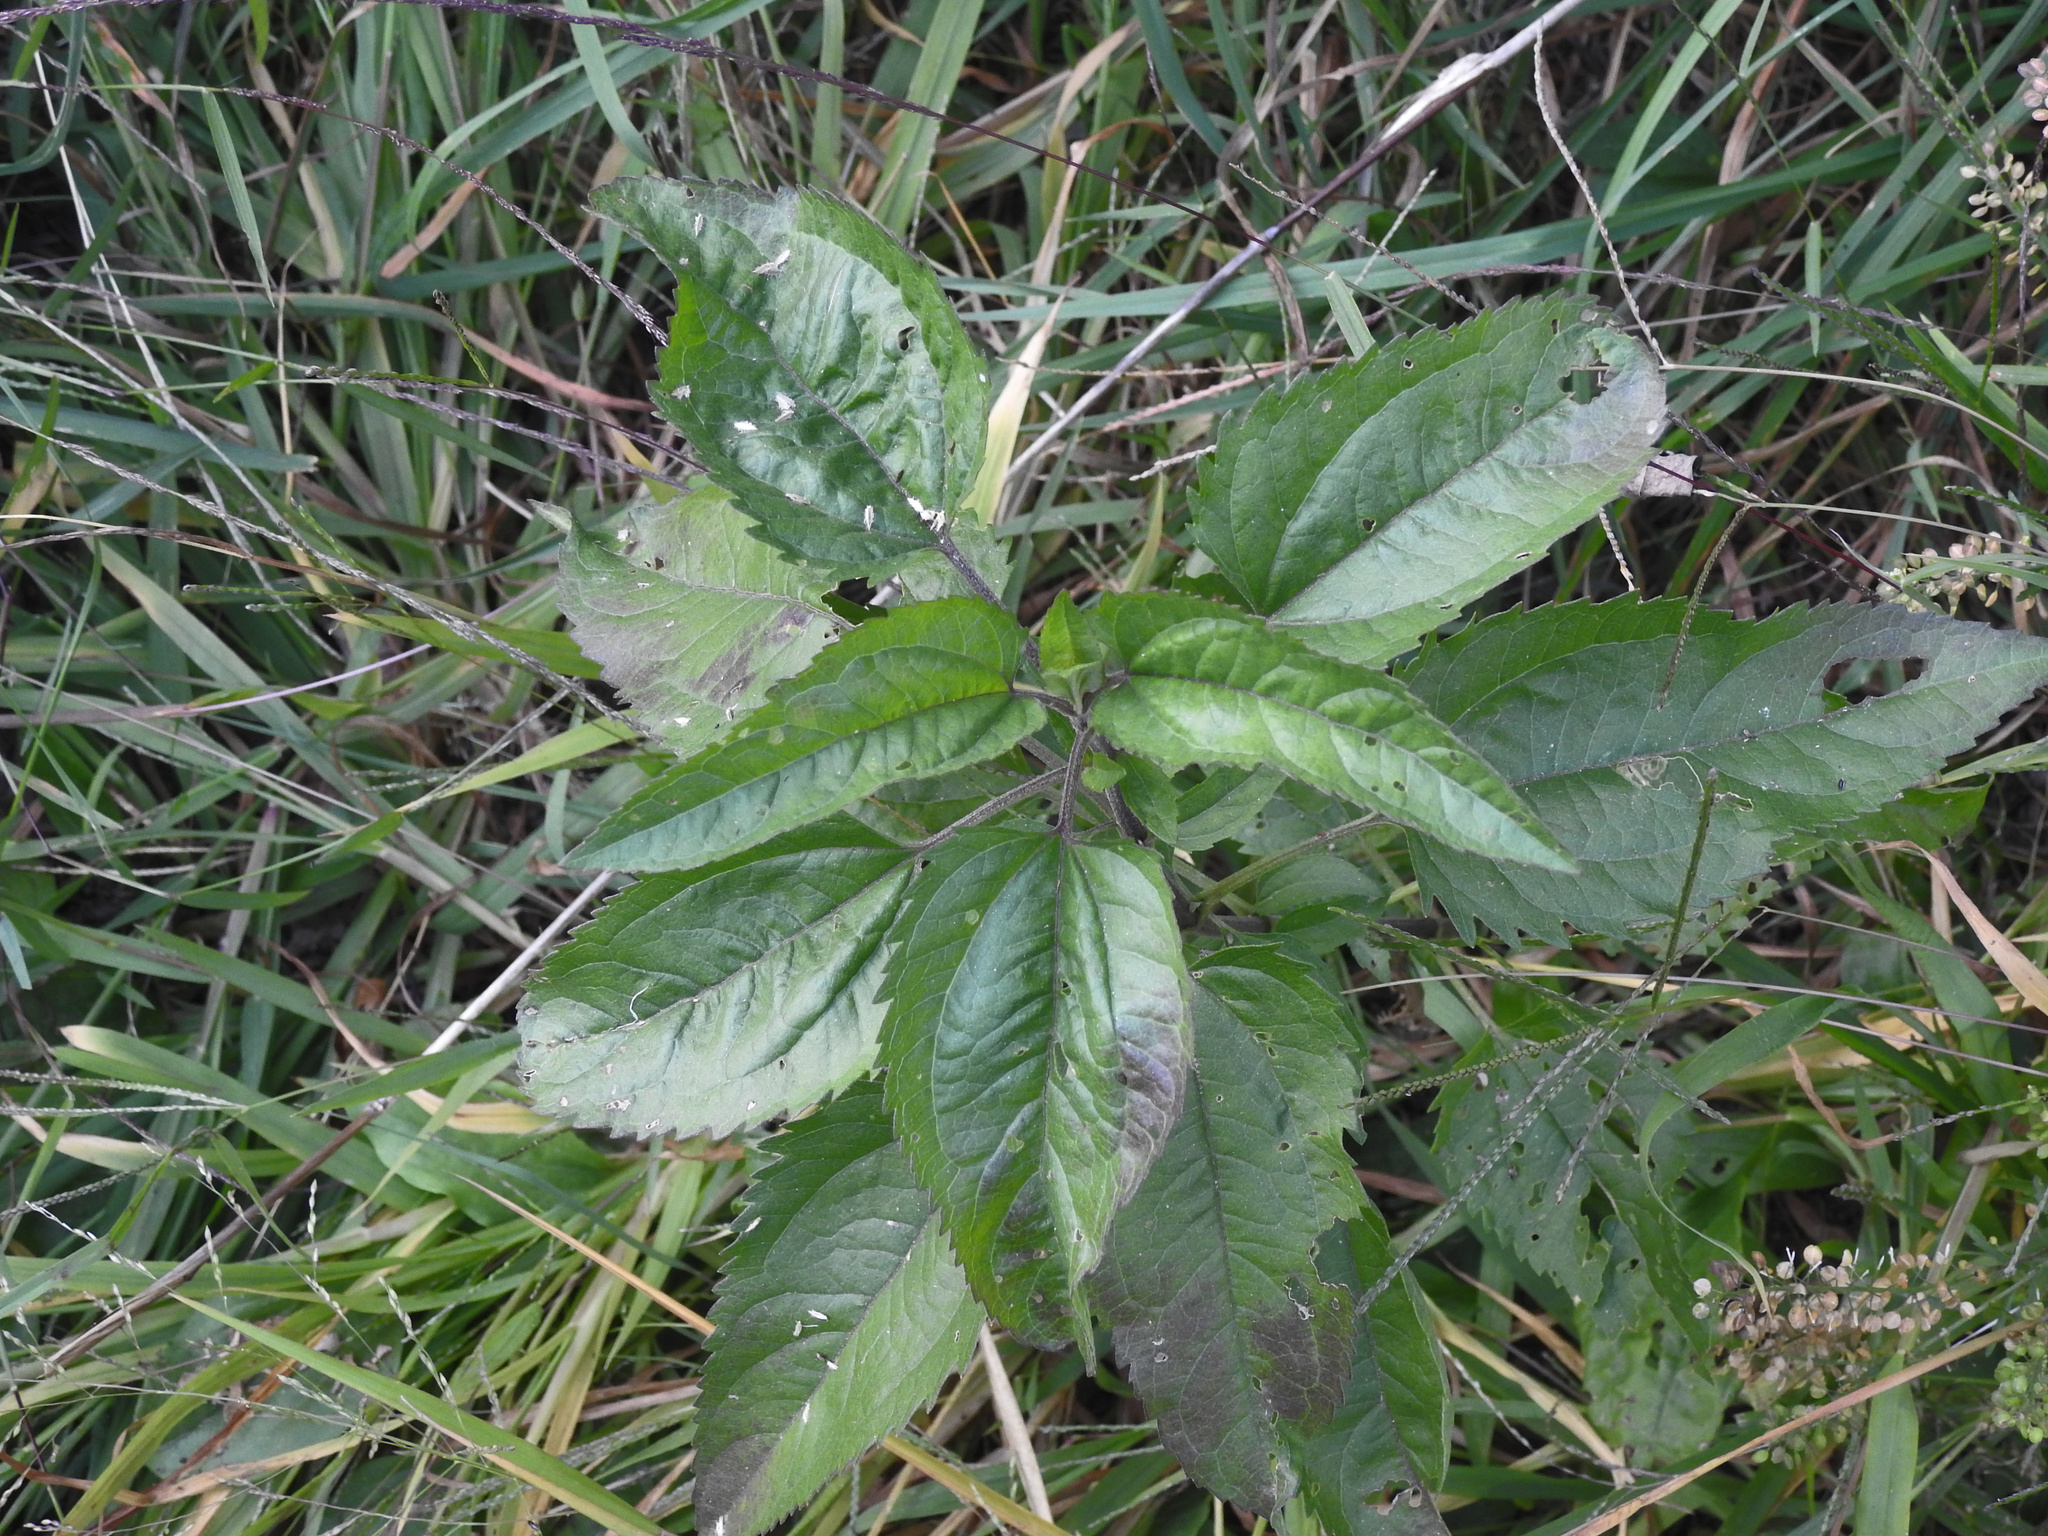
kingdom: Plantae
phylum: Tracheophyta
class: Magnoliopsida
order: Asterales
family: Asteraceae
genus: Eupatorium
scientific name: Eupatorium serotinum
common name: Late boneset
